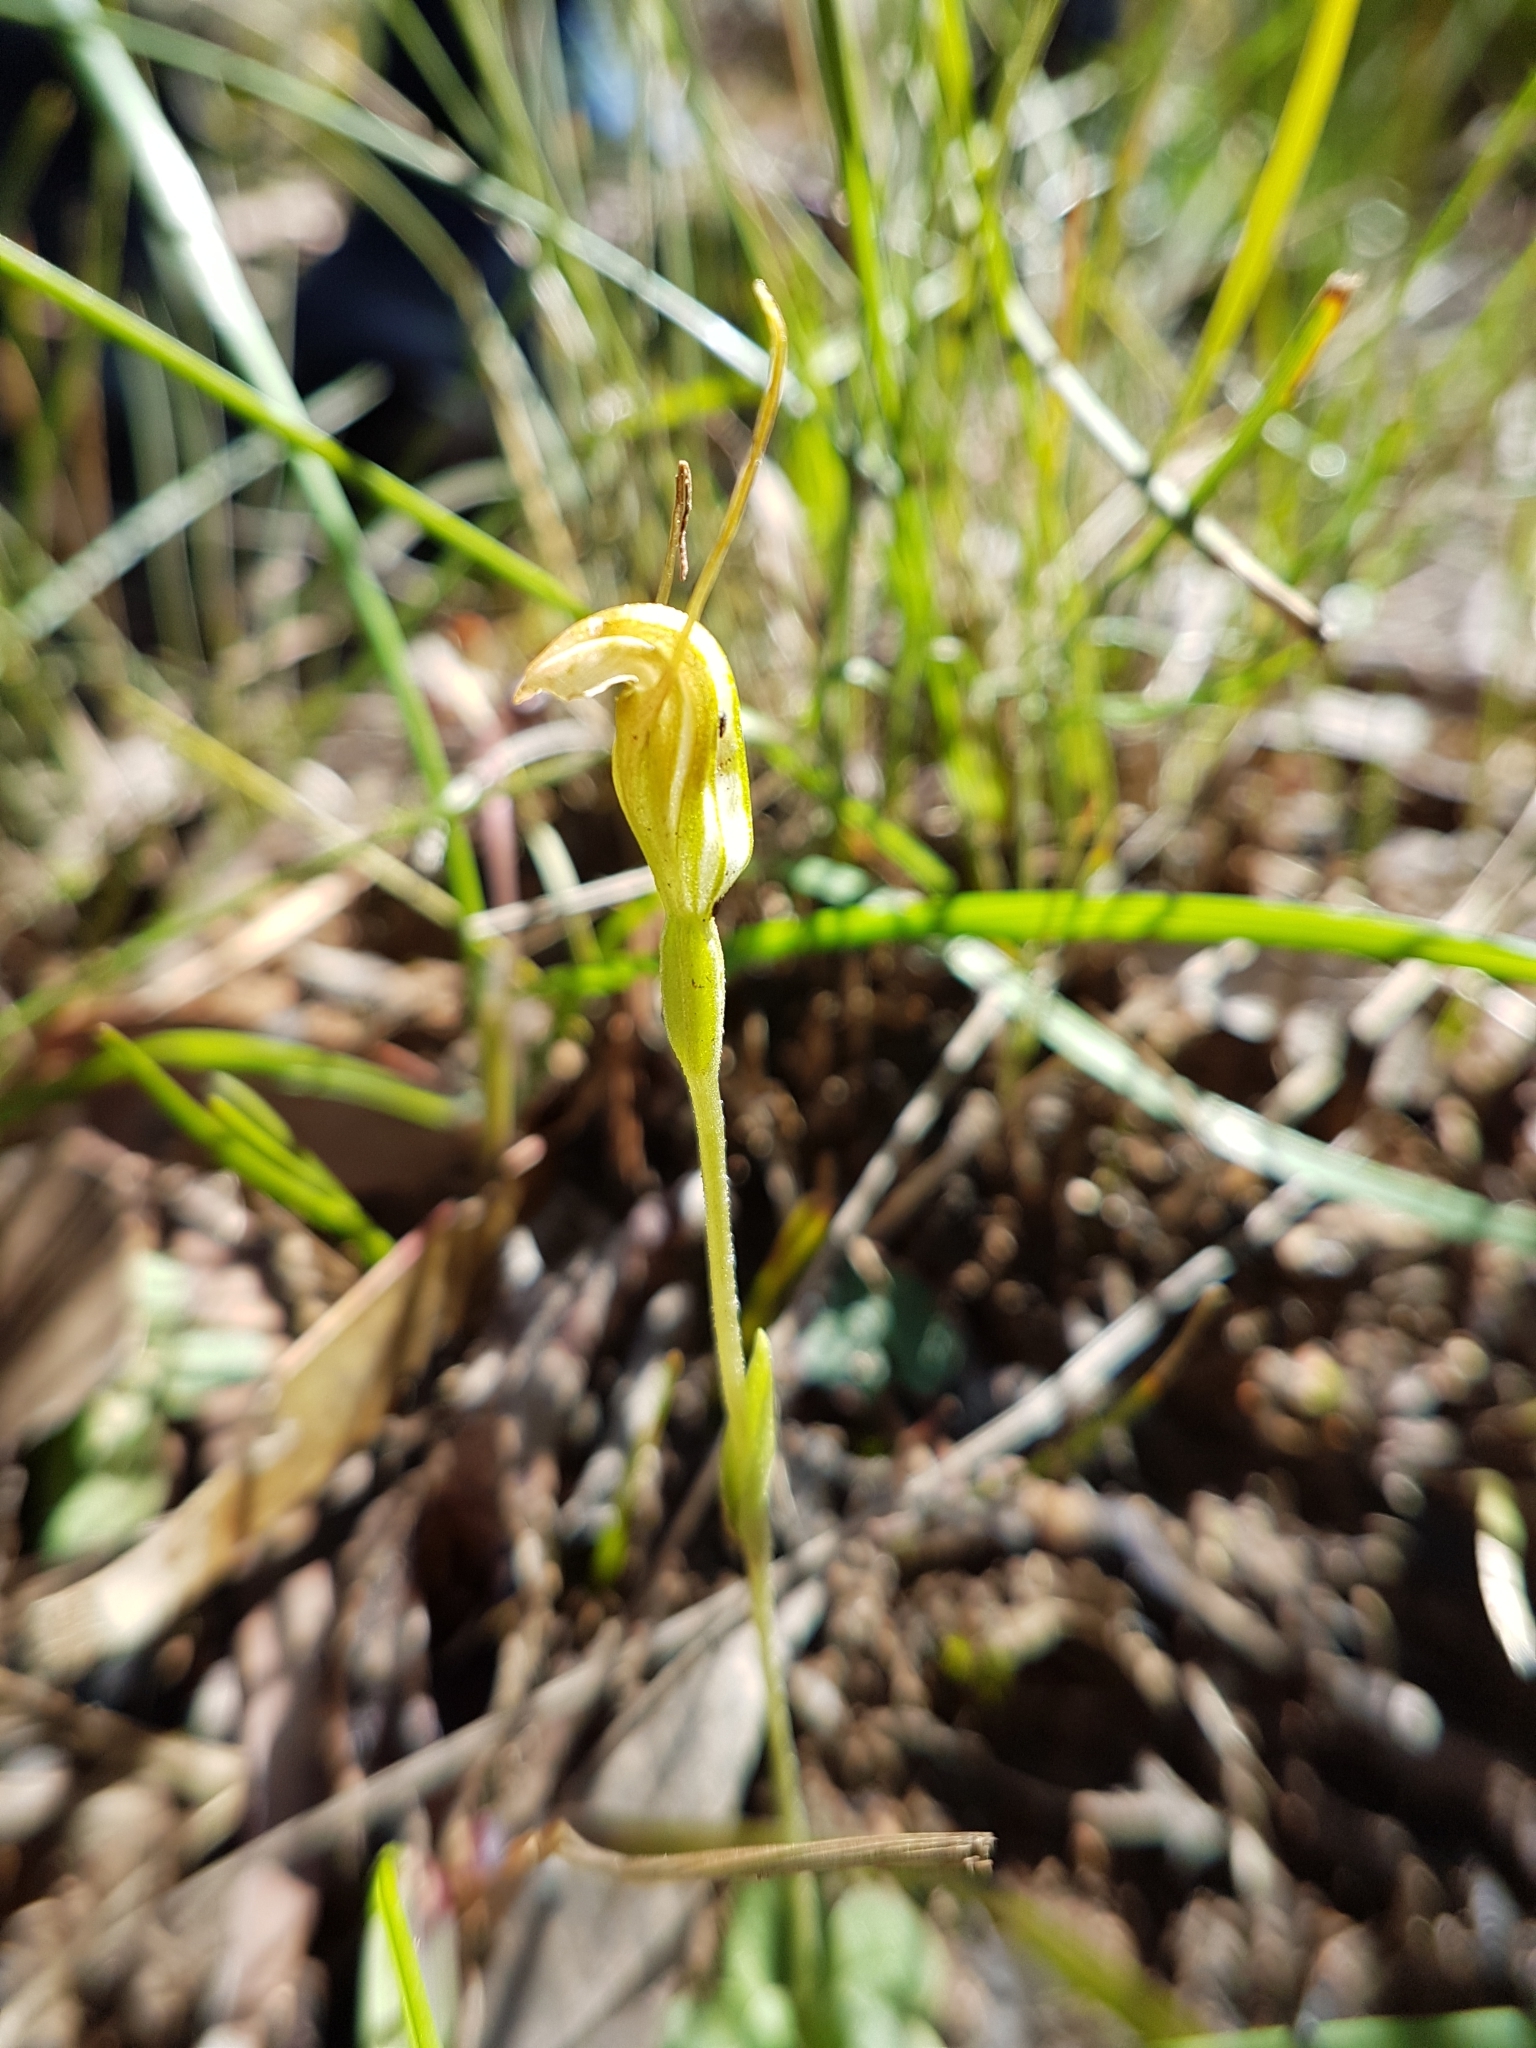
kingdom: Plantae
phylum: Tracheophyta
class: Liliopsida
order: Asparagales
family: Orchidaceae
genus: Pterostylis
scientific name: Pterostylis nana
